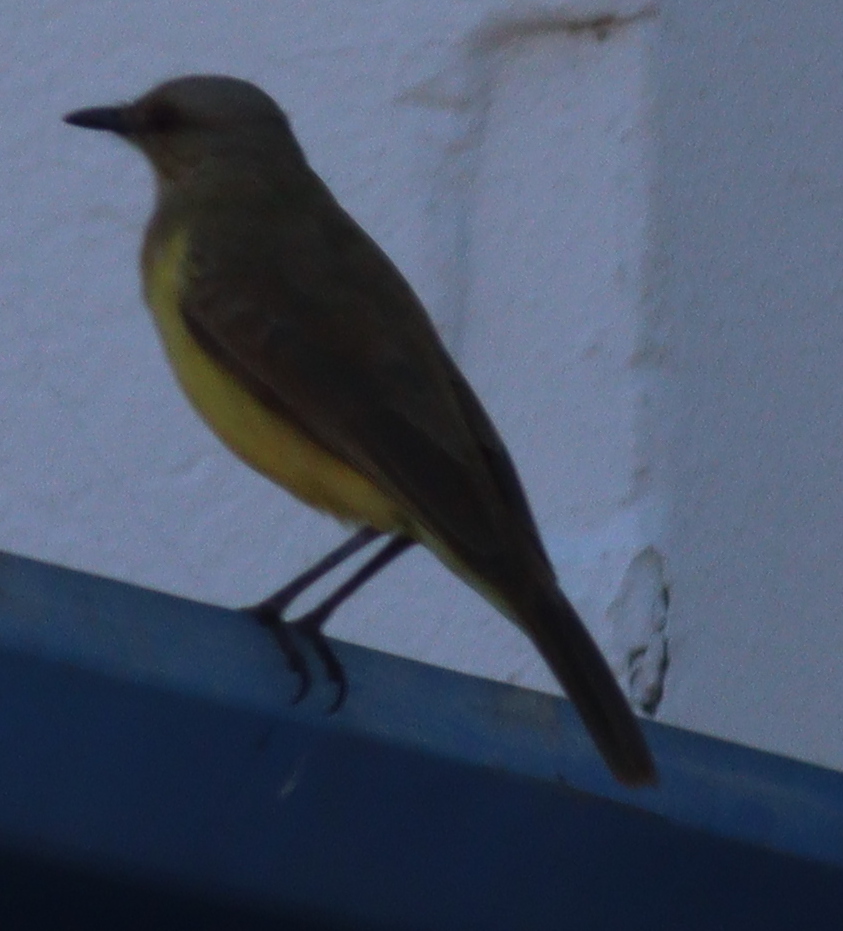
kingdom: Animalia
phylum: Chordata
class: Aves
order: Passeriformes
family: Tyrannidae
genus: Machetornis
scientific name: Machetornis rixosa
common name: Cattle tyrant
